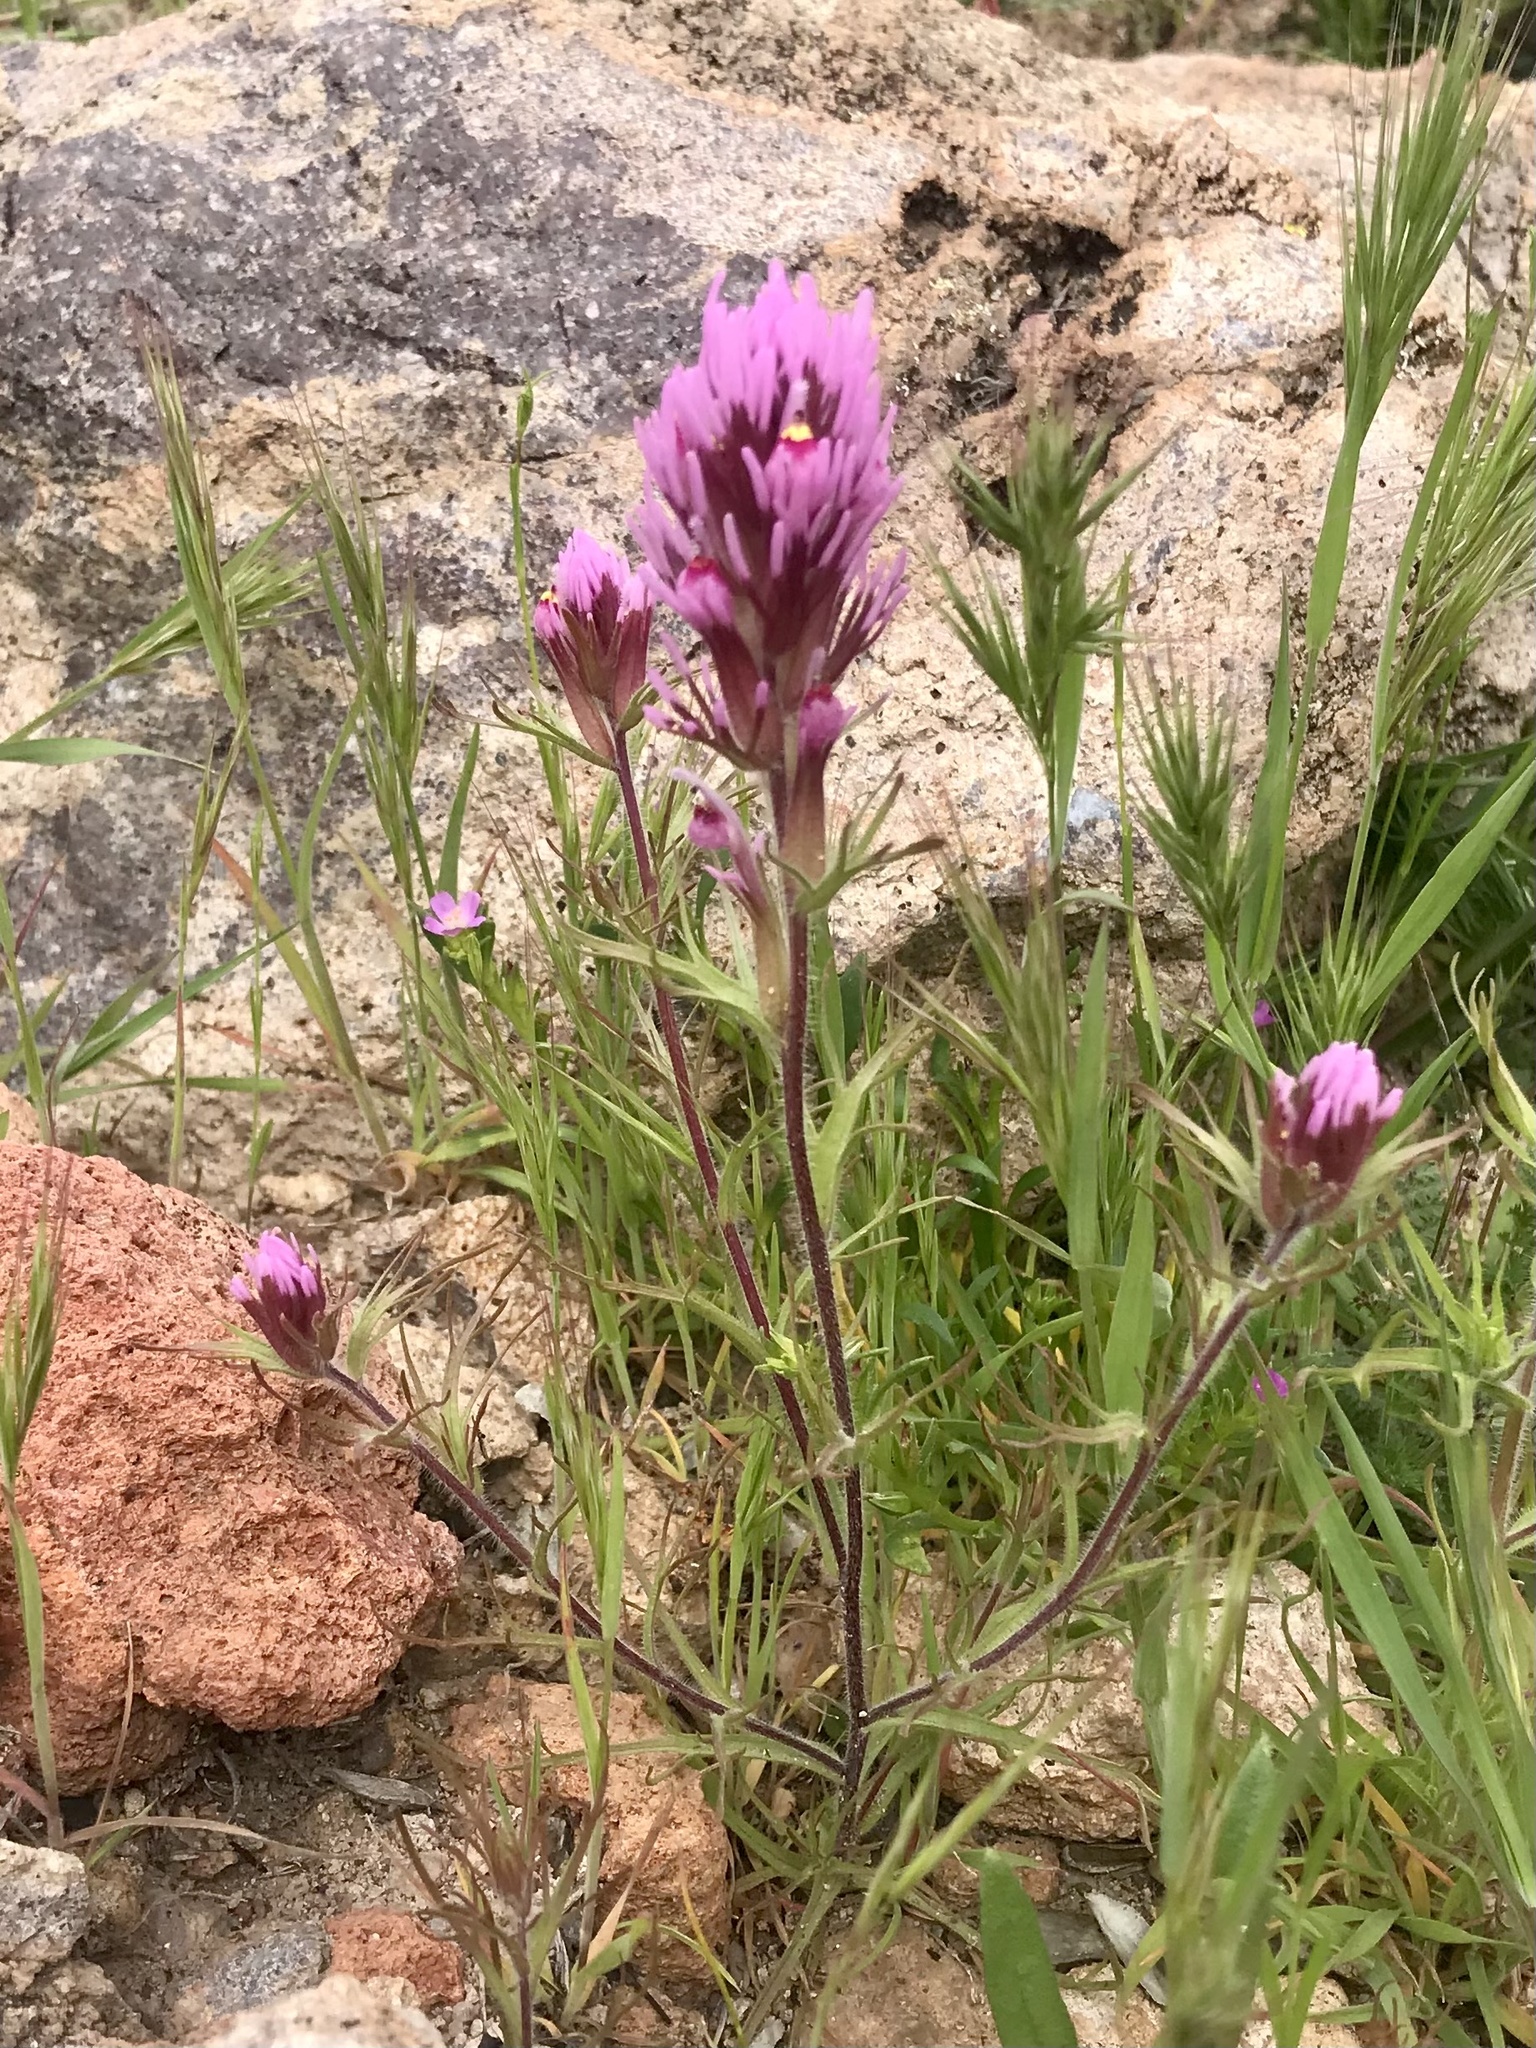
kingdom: Plantae
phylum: Tracheophyta
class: Magnoliopsida
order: Lamiales
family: Orobanchaceae
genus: Castilleja
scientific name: Castilleja exserta
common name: Purple owl-clover
